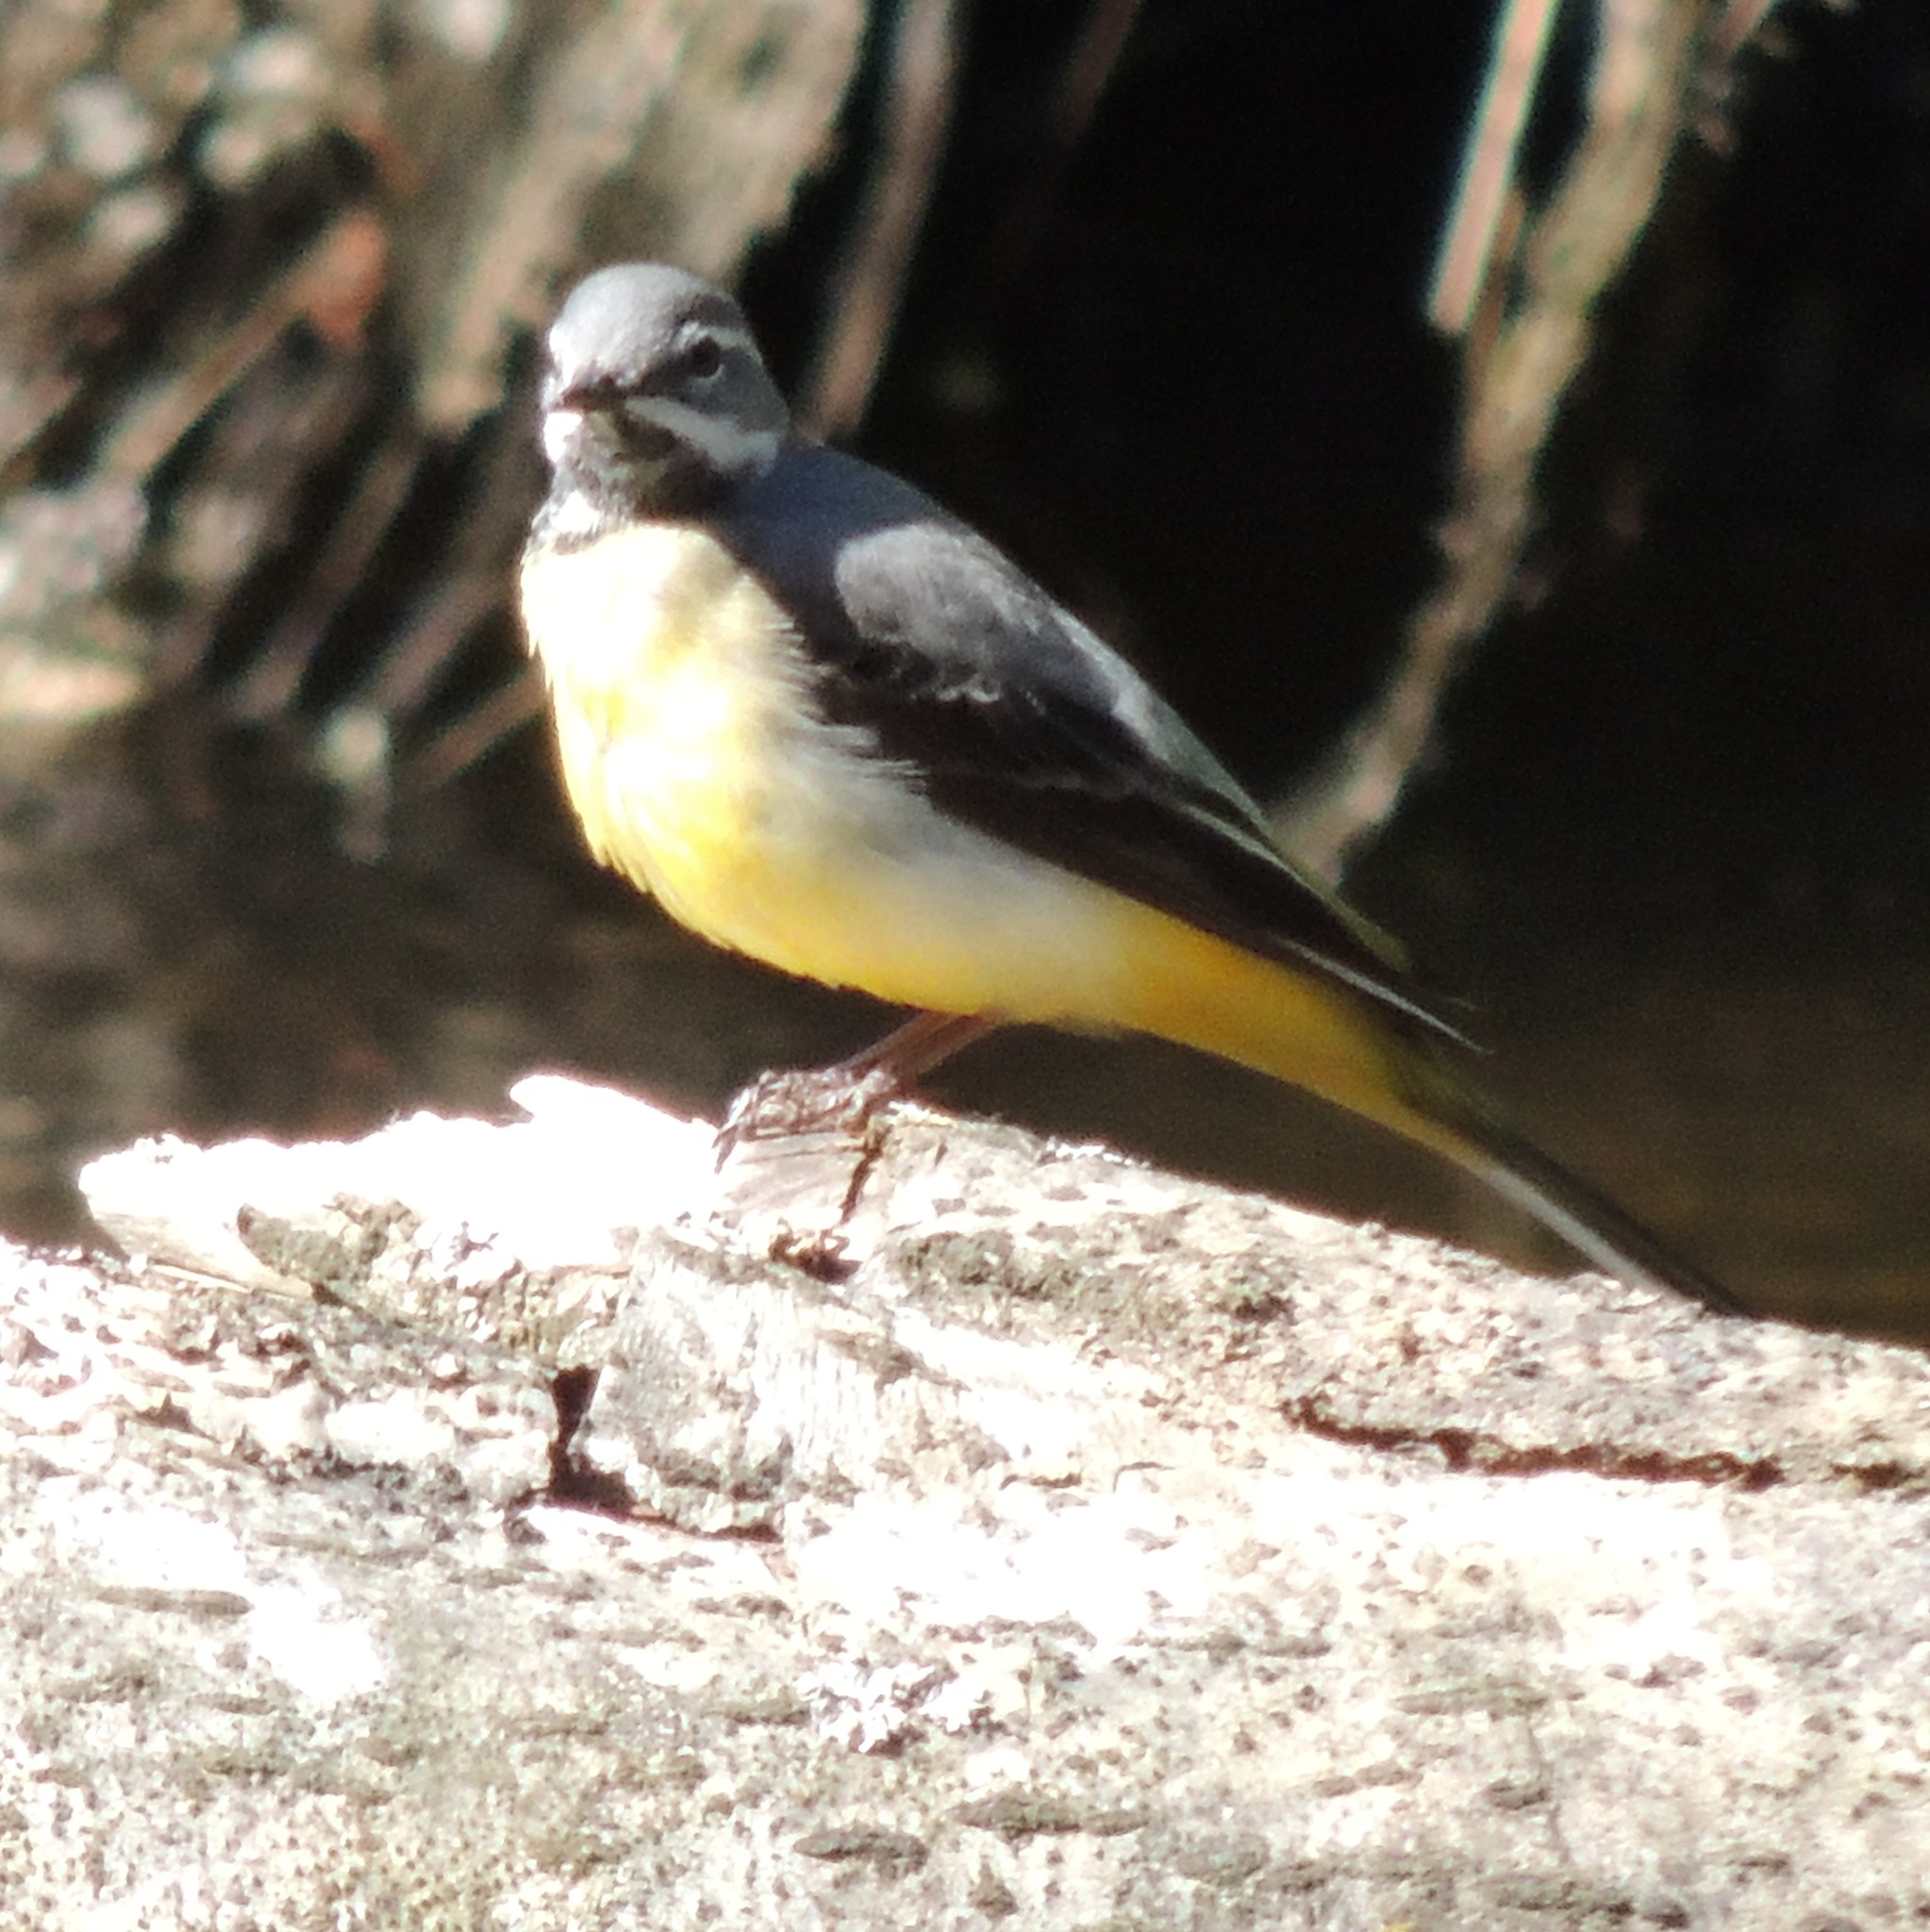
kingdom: Animalia
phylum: Chordata
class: Aves
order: Passeriformes
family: Motacillidae
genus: Motacilla
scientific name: Motacilla cinerea
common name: Grey wagtail
